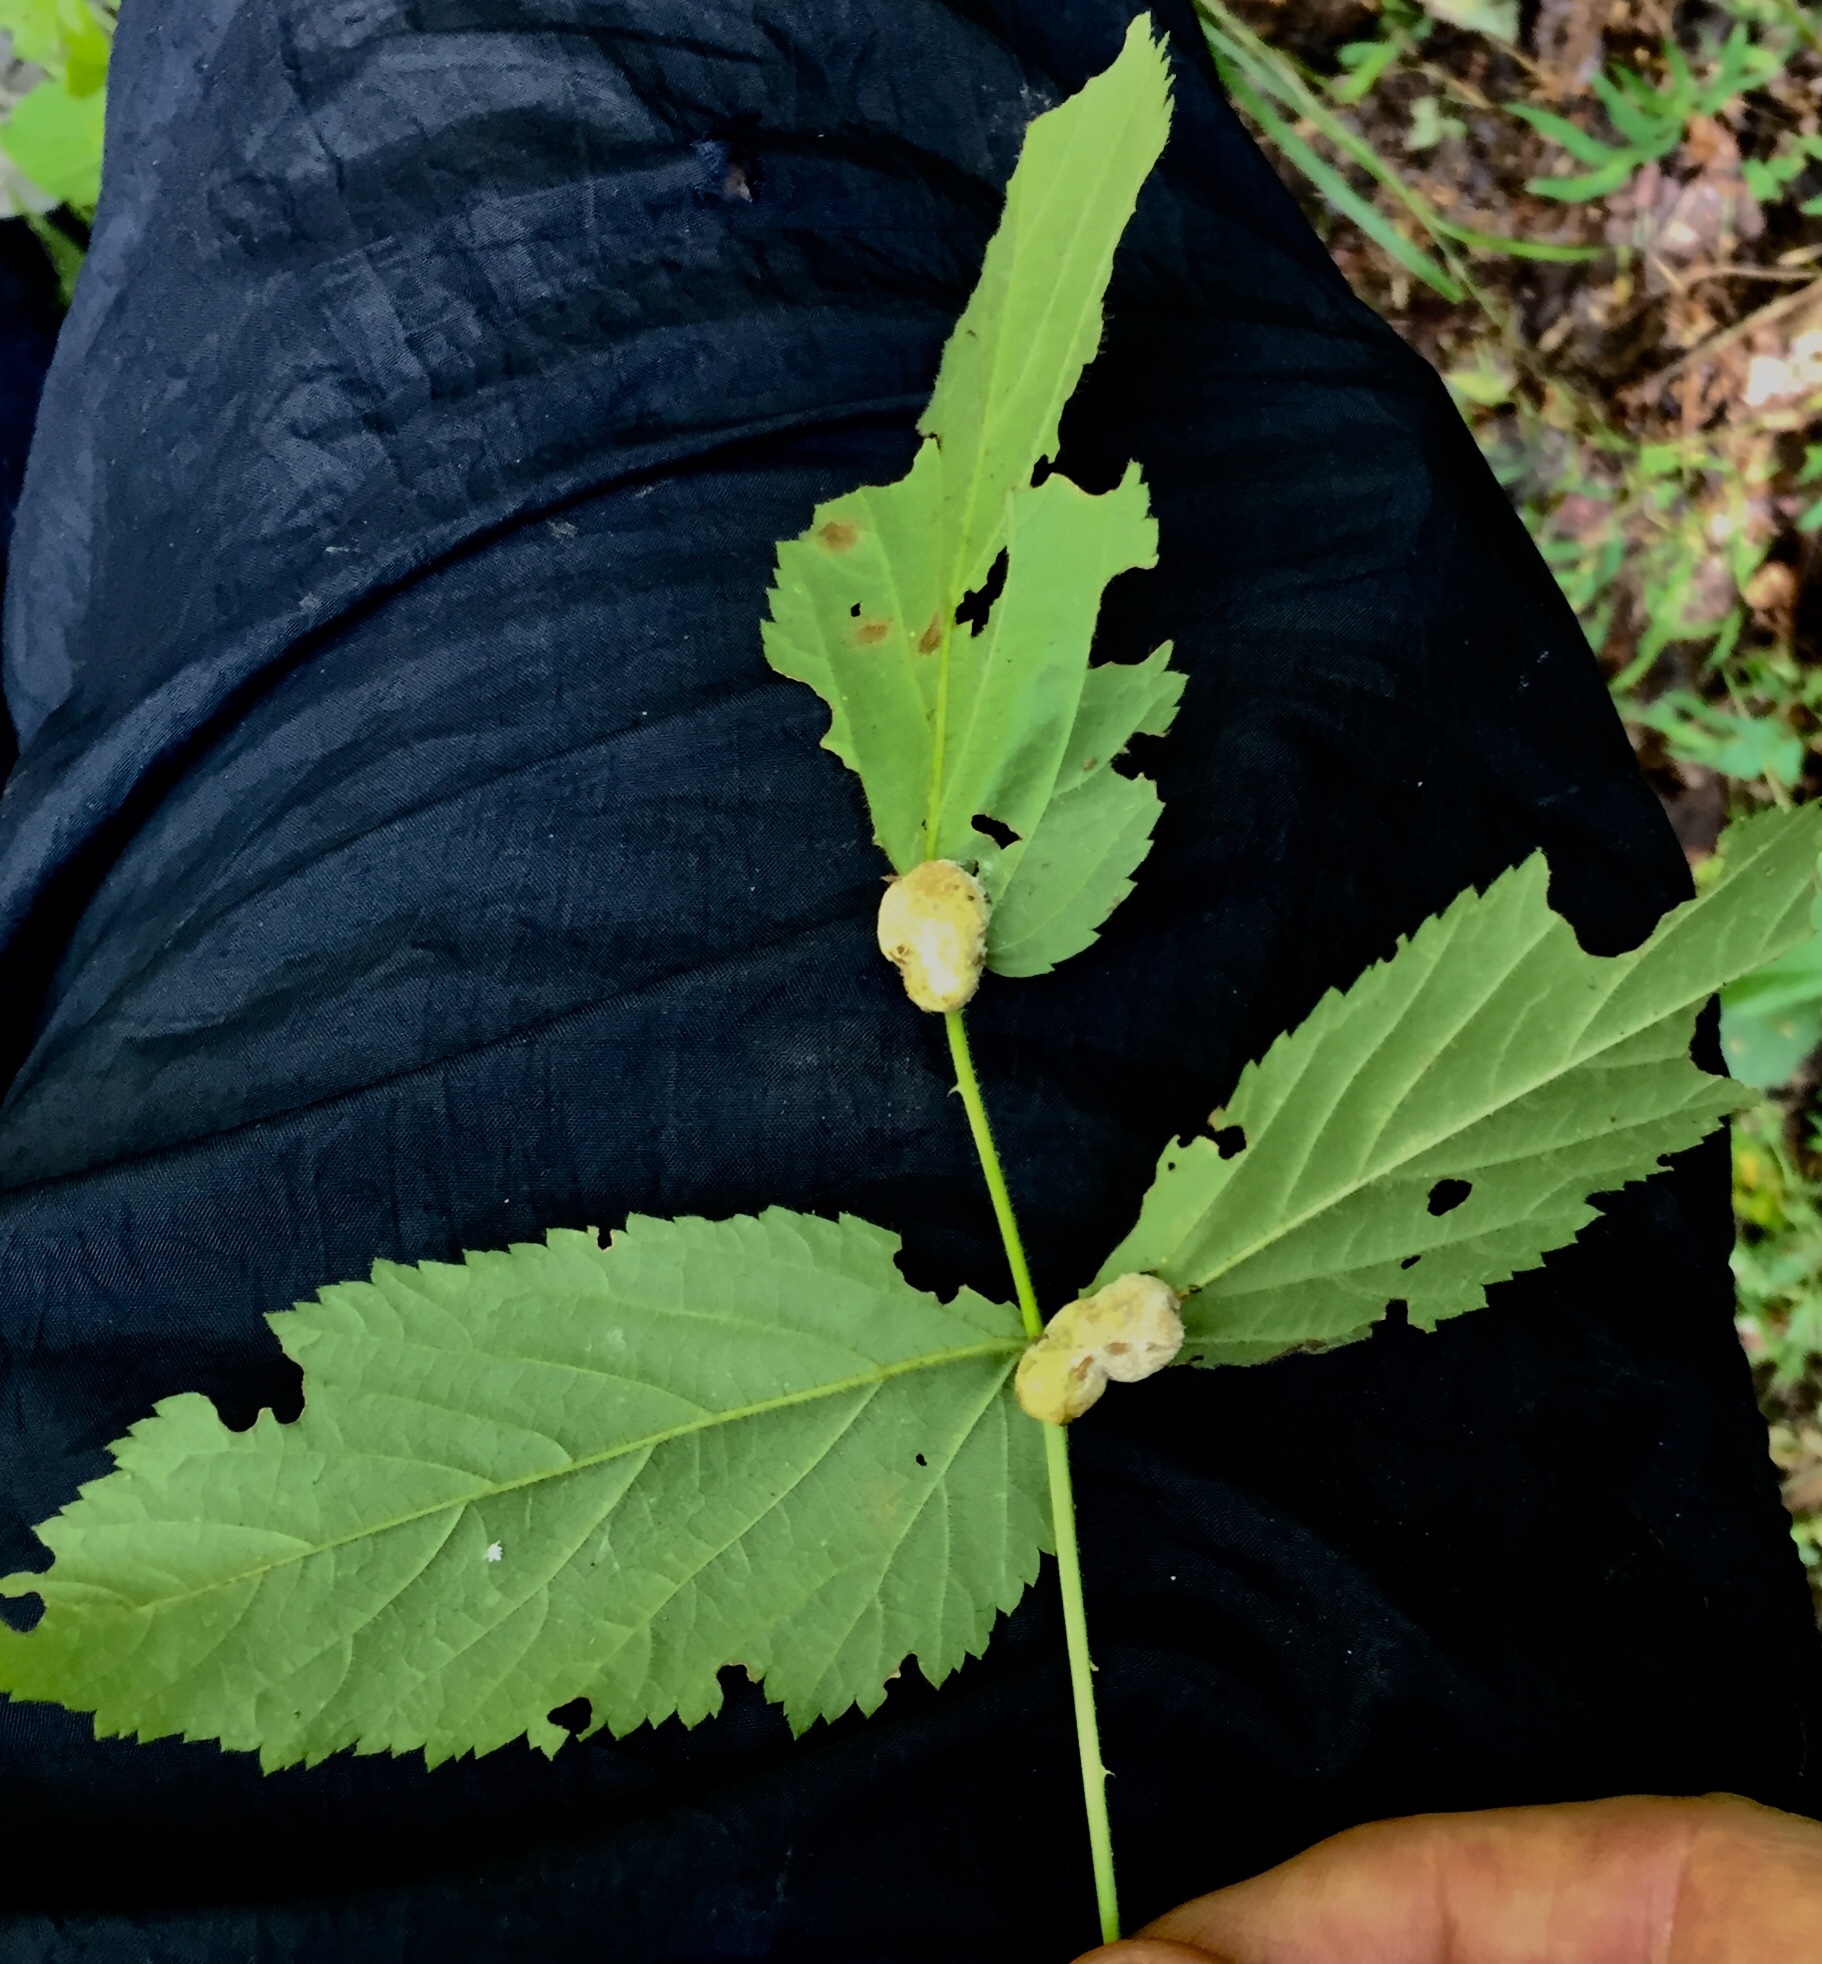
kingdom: Animalia
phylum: Arthropoda
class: Insecta
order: Diptera
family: Cecidomyiidae
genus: Neolasioptera
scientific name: Neolasioptera farinosa
